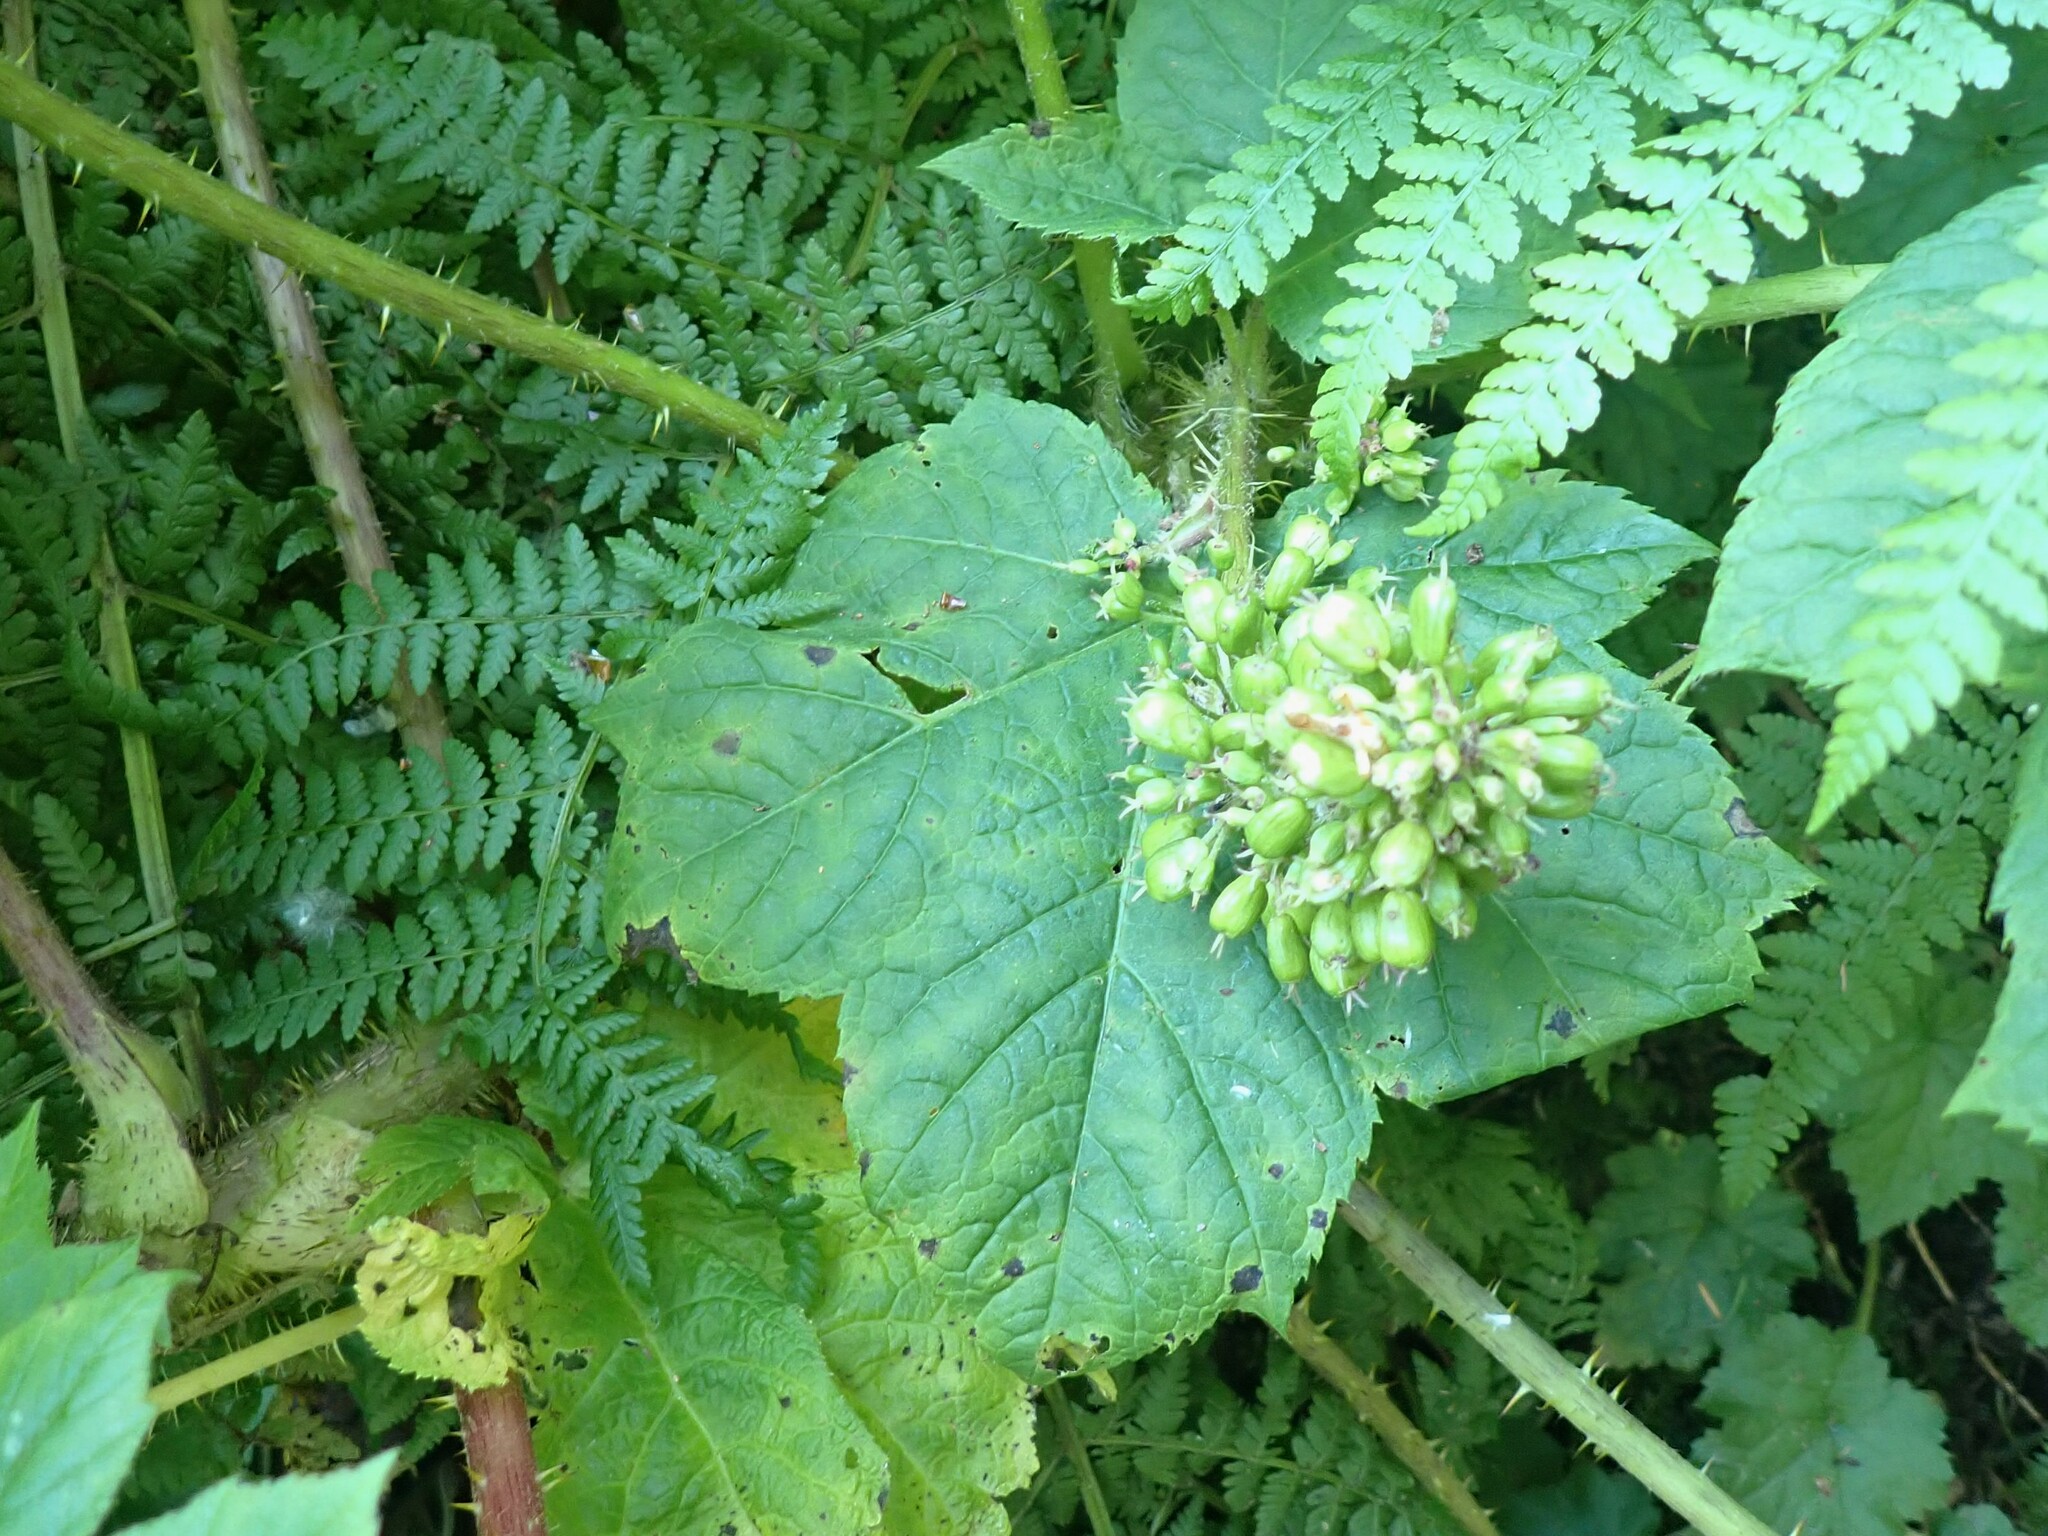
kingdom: Plantae
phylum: Tracheophyta
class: Magnoliopsida
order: Apiales
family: Araliaceae
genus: Oplopanax
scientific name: Oplopanax horridus
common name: Devil's walking-stick
